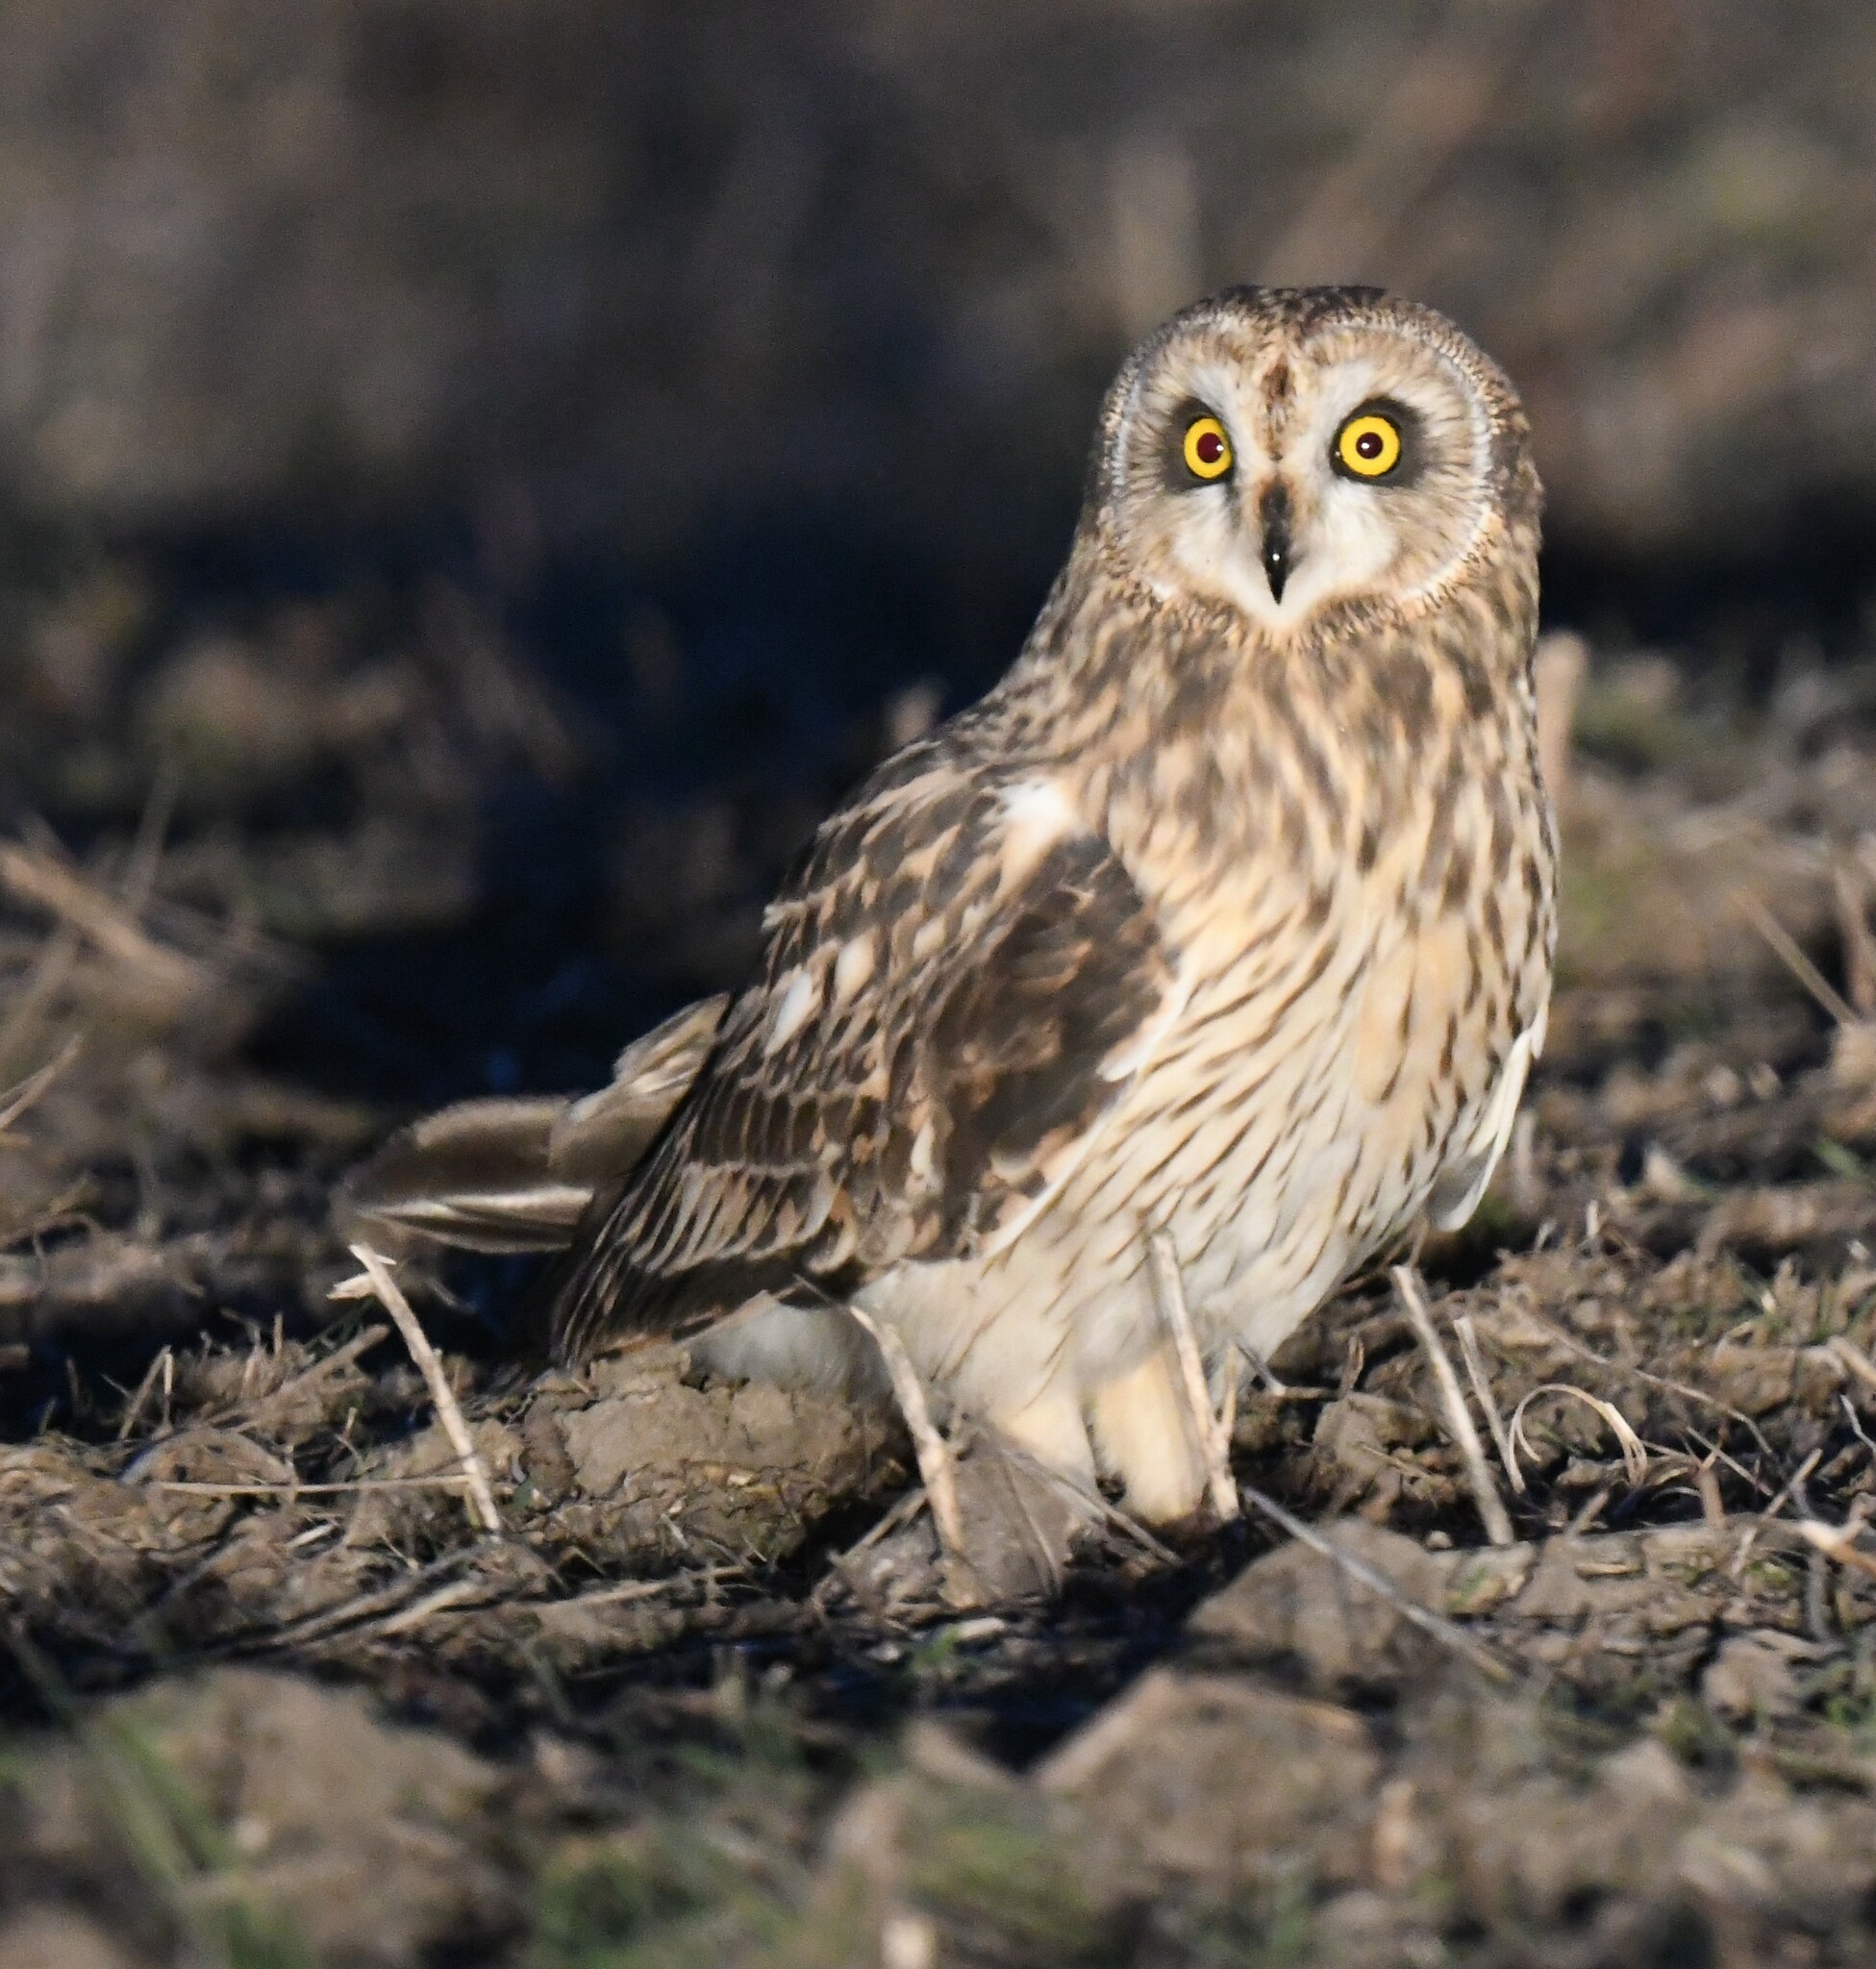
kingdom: Animalia
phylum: Chordata
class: Aves
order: Strigiformes
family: Strigidae
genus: Asio
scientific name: Asio flammeus
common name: Short-eared owl
